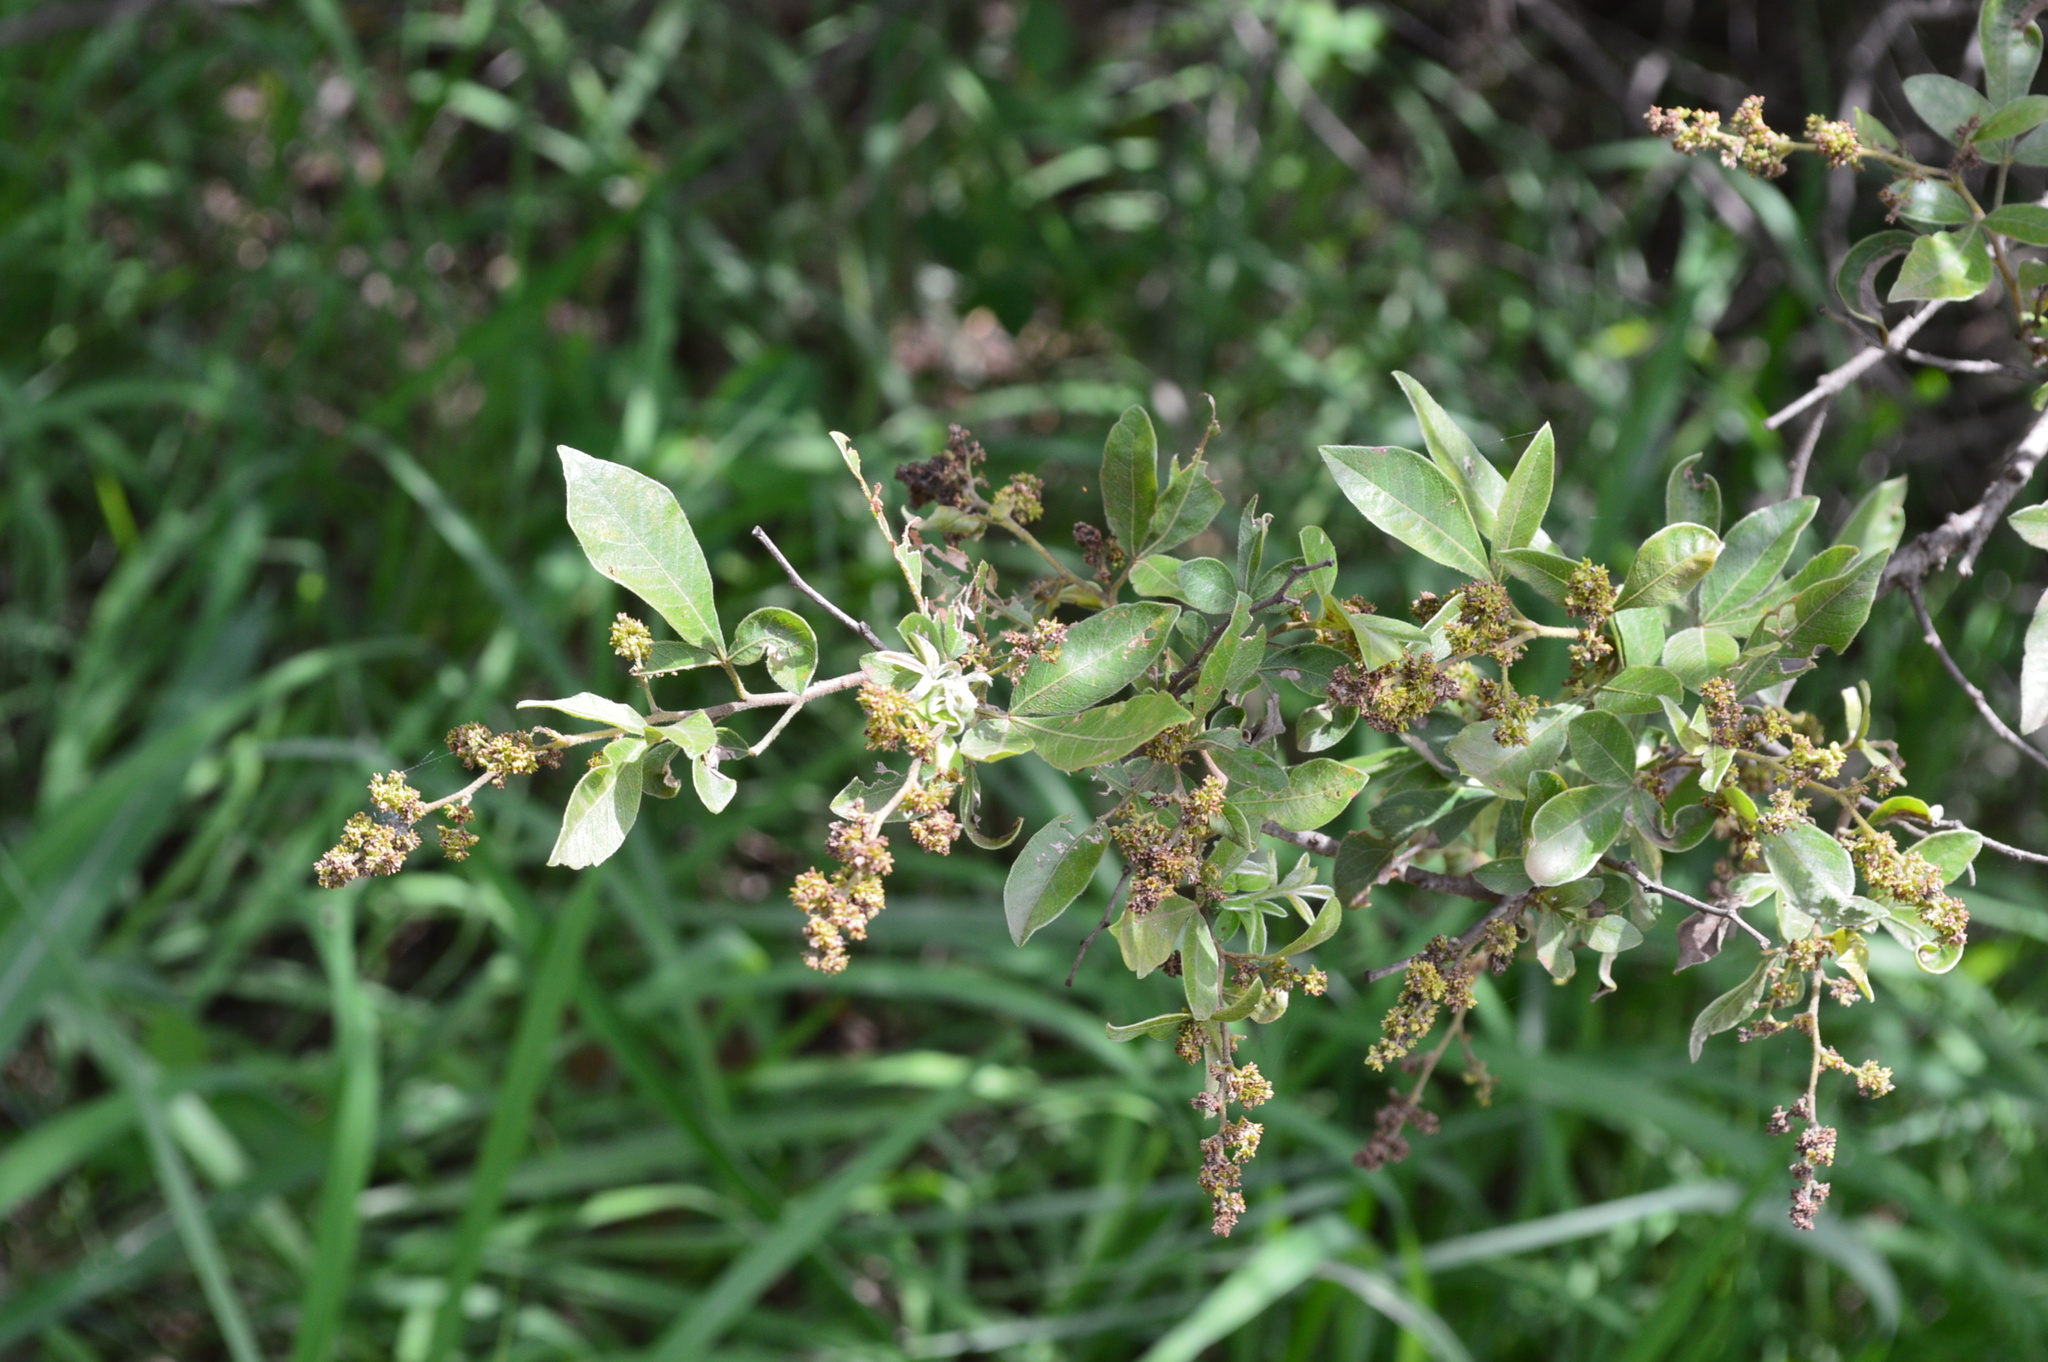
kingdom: Plantae
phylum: Tracheophyta
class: Magnoliopsida
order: Sapindales
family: Anacardiaceae
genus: Searsia
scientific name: Searsia pyroides
